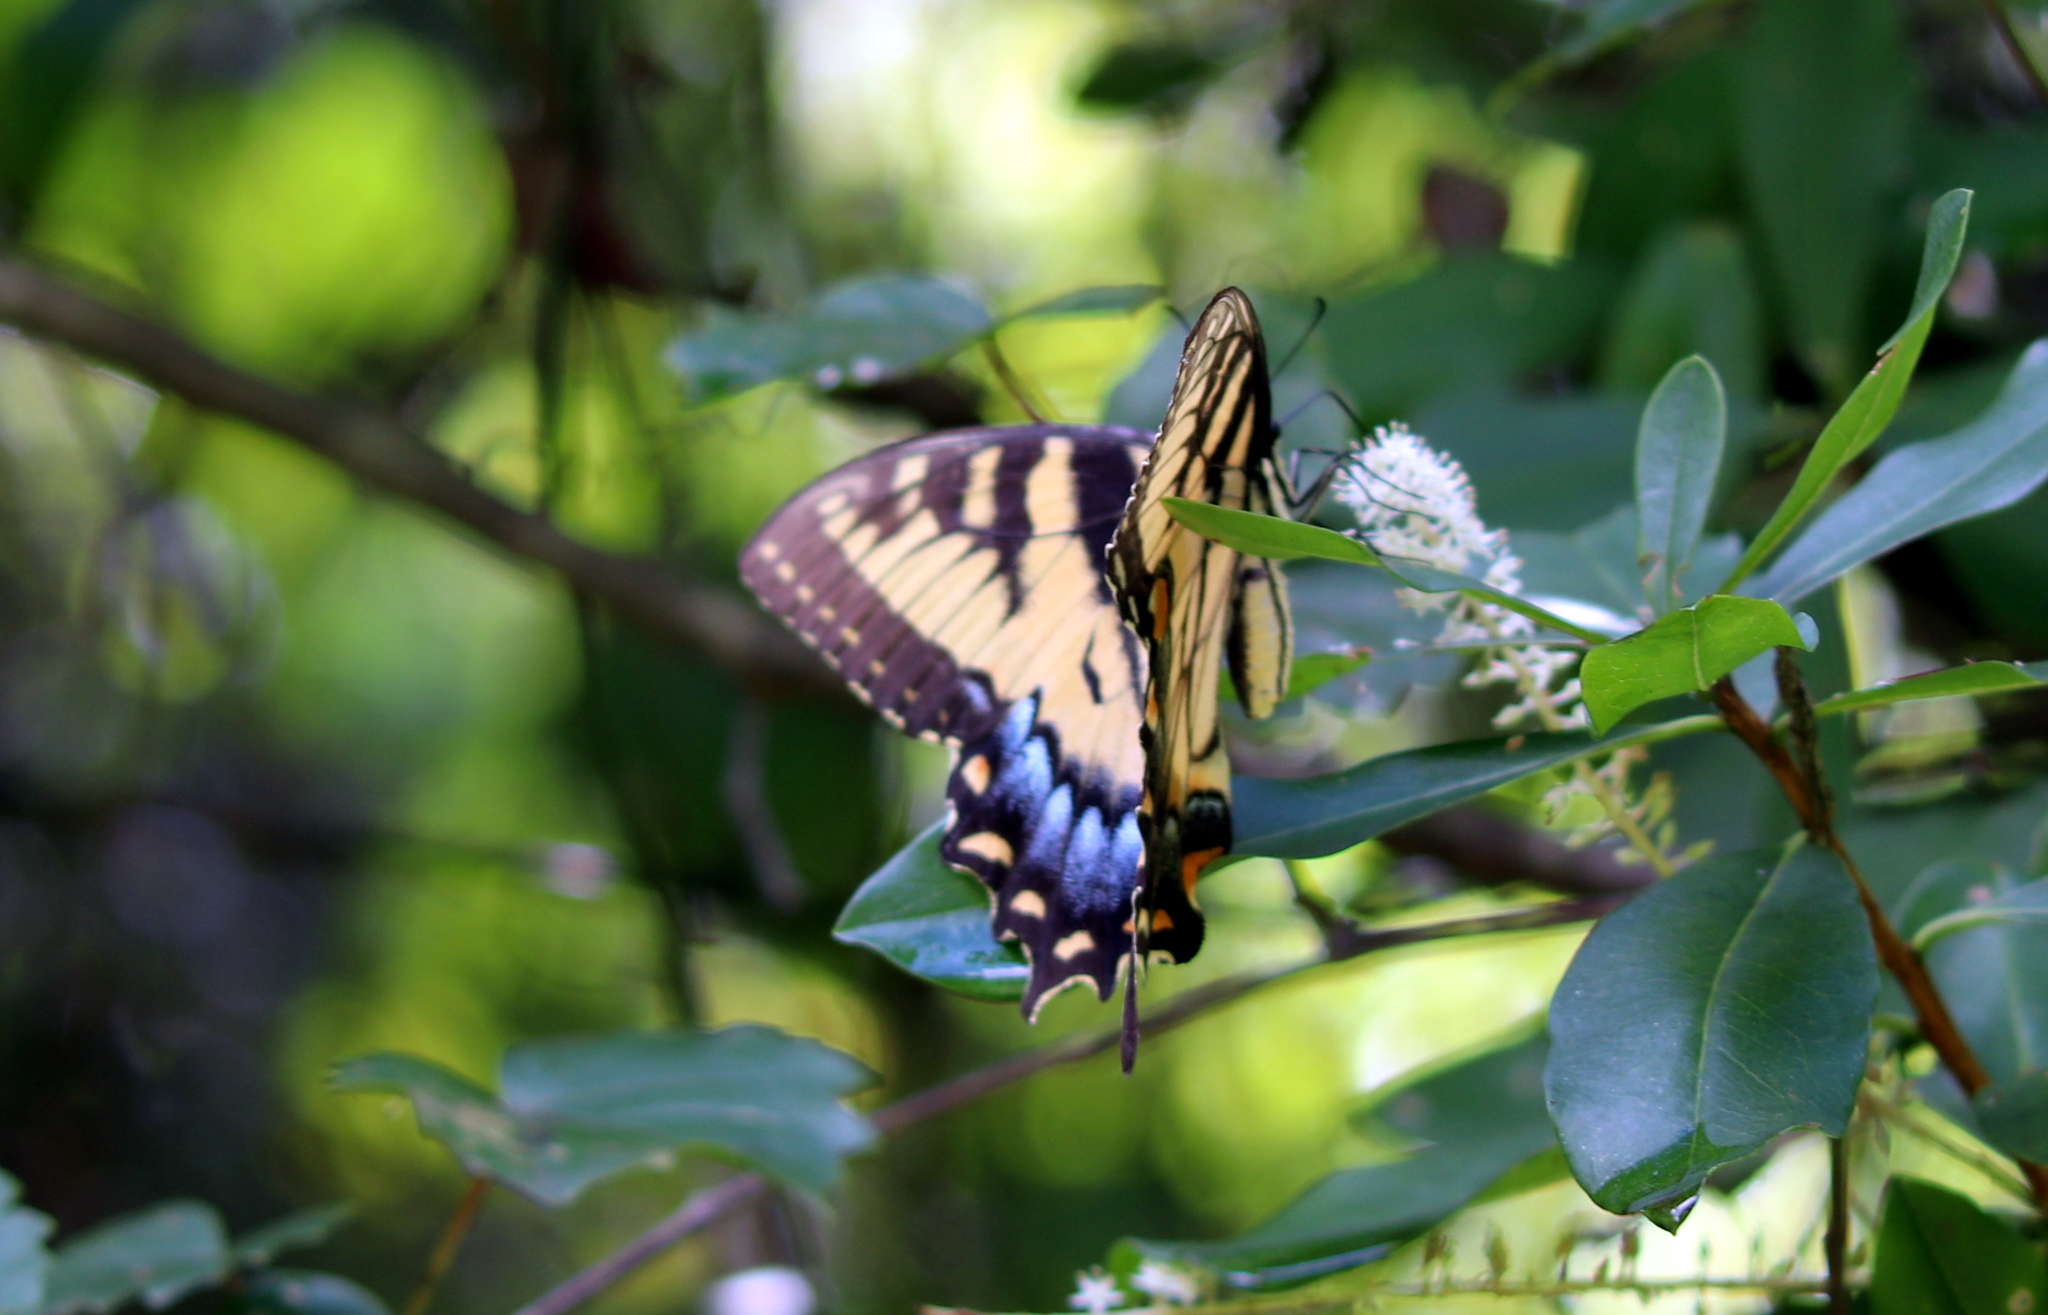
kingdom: Animalia
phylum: Arthropoda
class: Insecta
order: Lepidoptera
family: Papilionidae
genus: Papilio
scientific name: Papilio glaucus
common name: Tiger swallowtail
